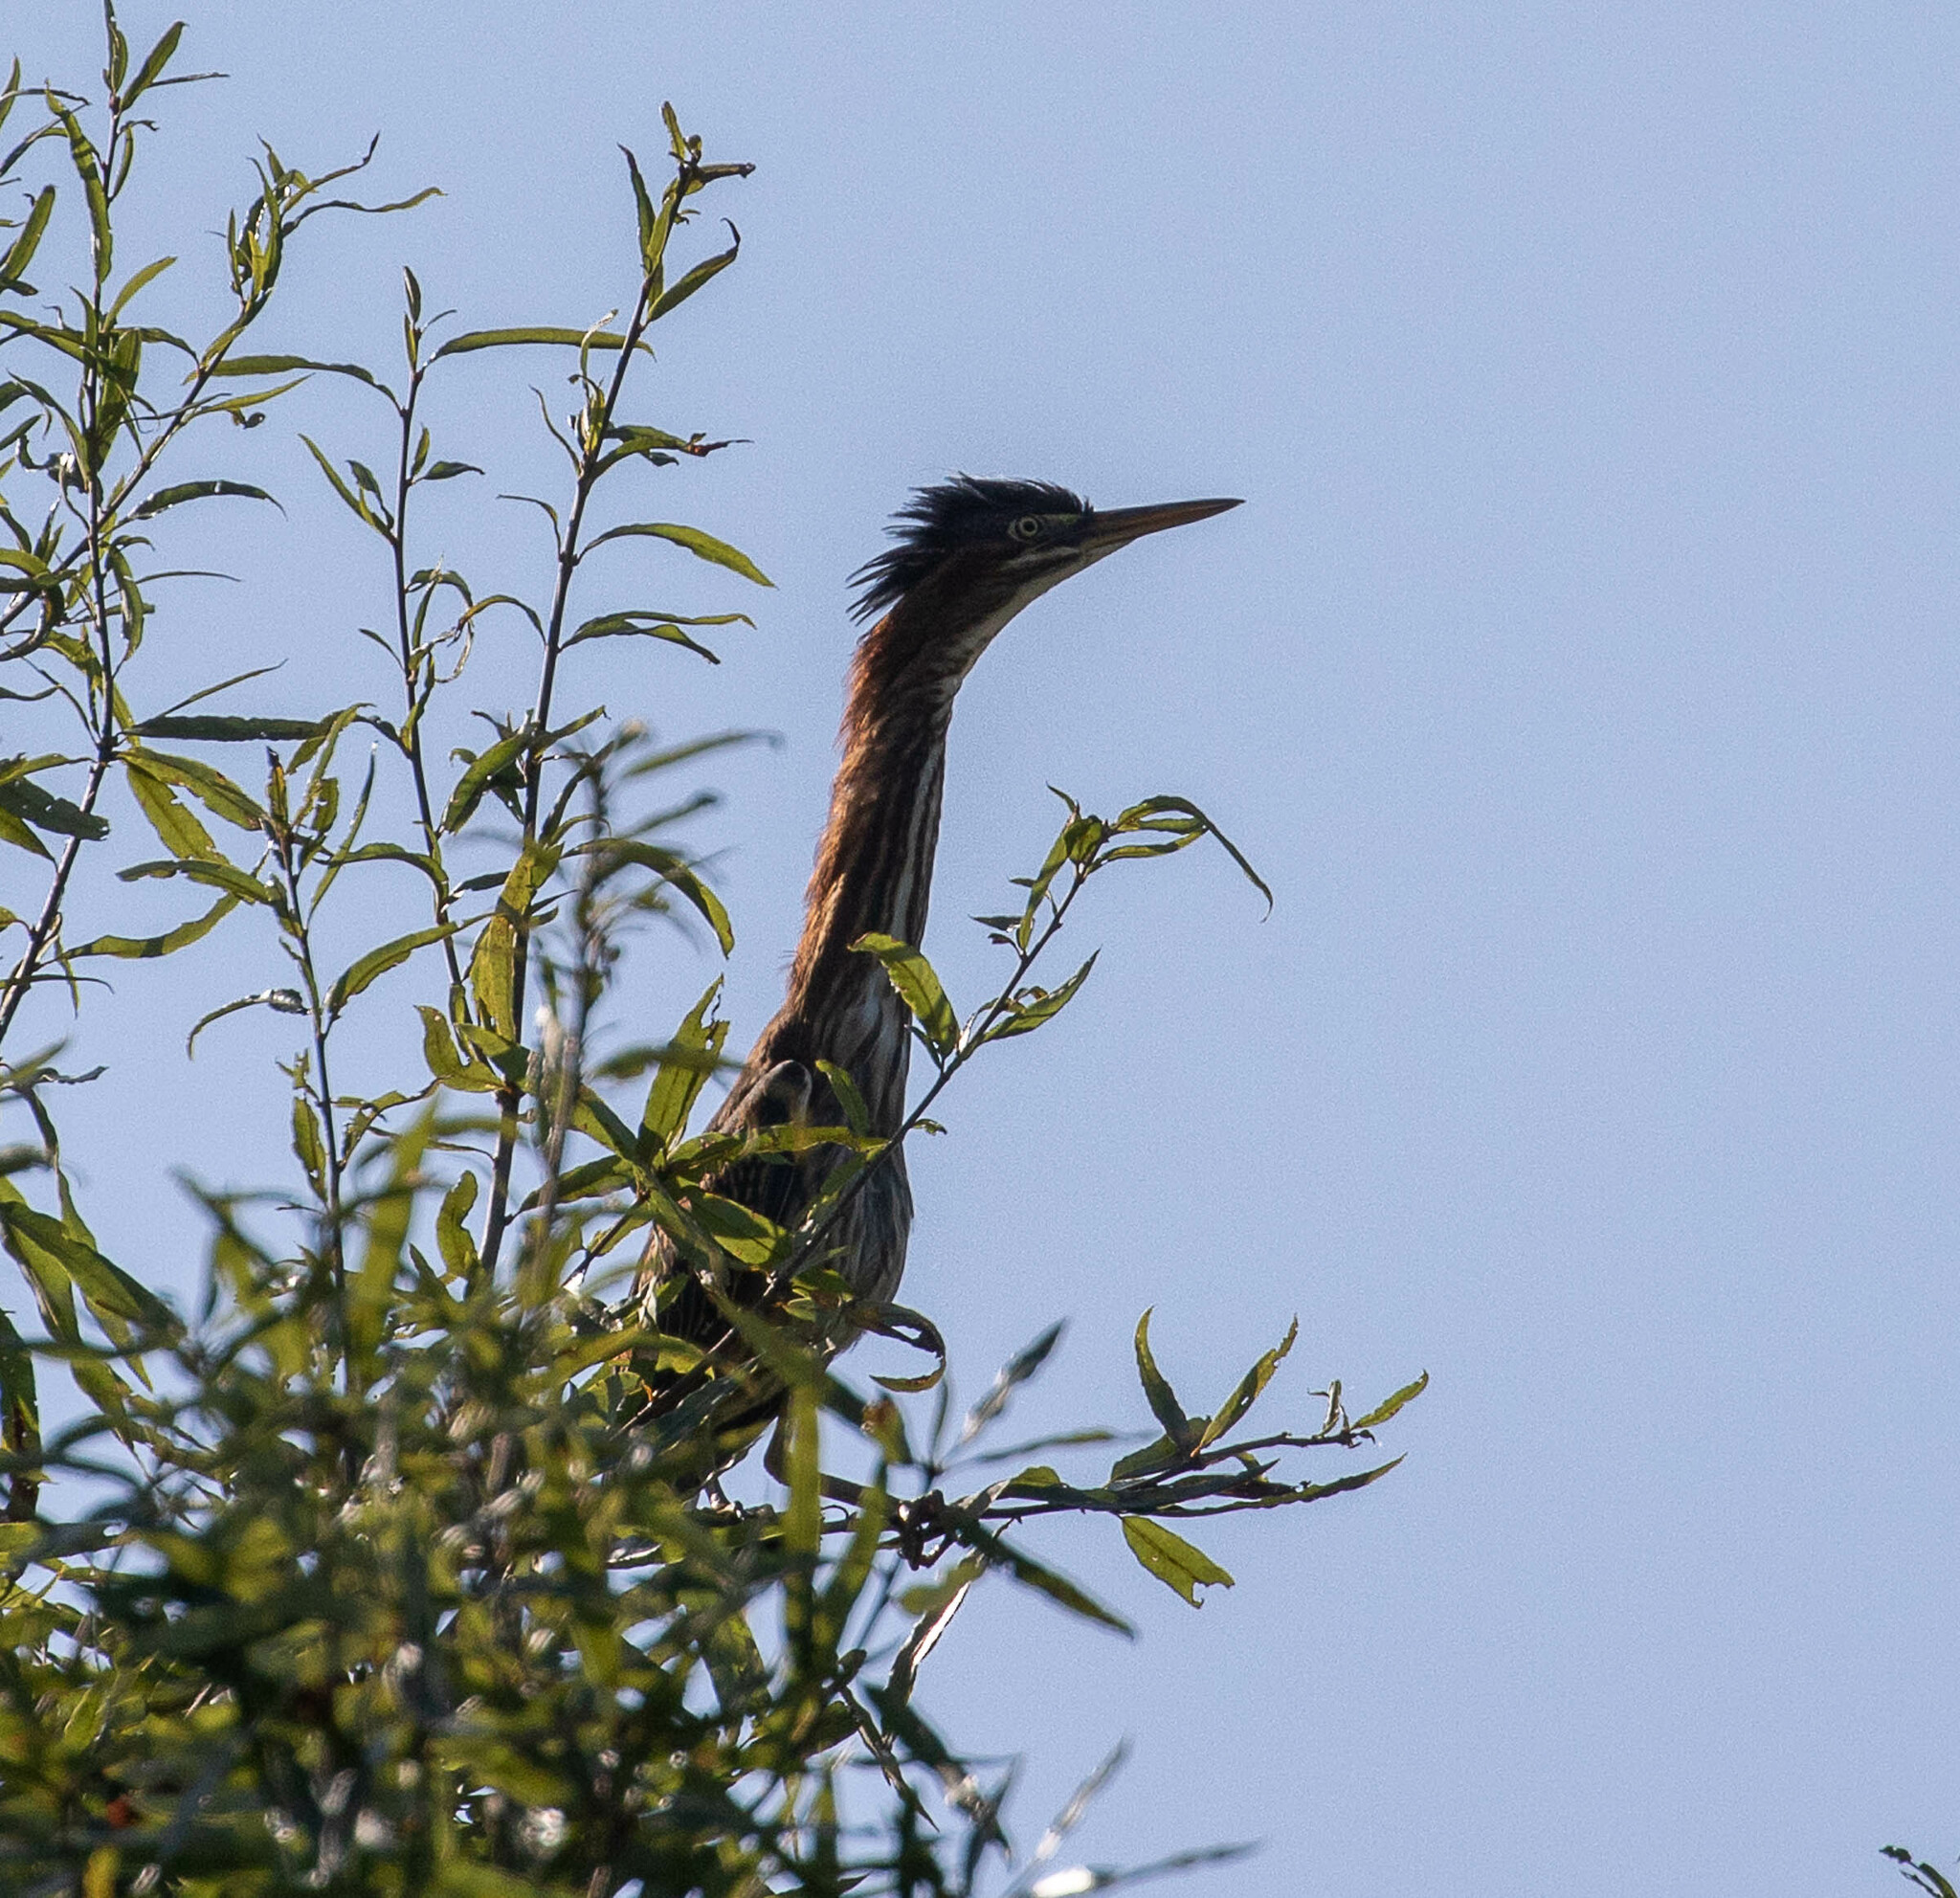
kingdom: Animalia
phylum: Chordata
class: Aves
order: Pelecaniformes
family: Ardeidae
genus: Butorides
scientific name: Butorides virescens
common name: Green heron
